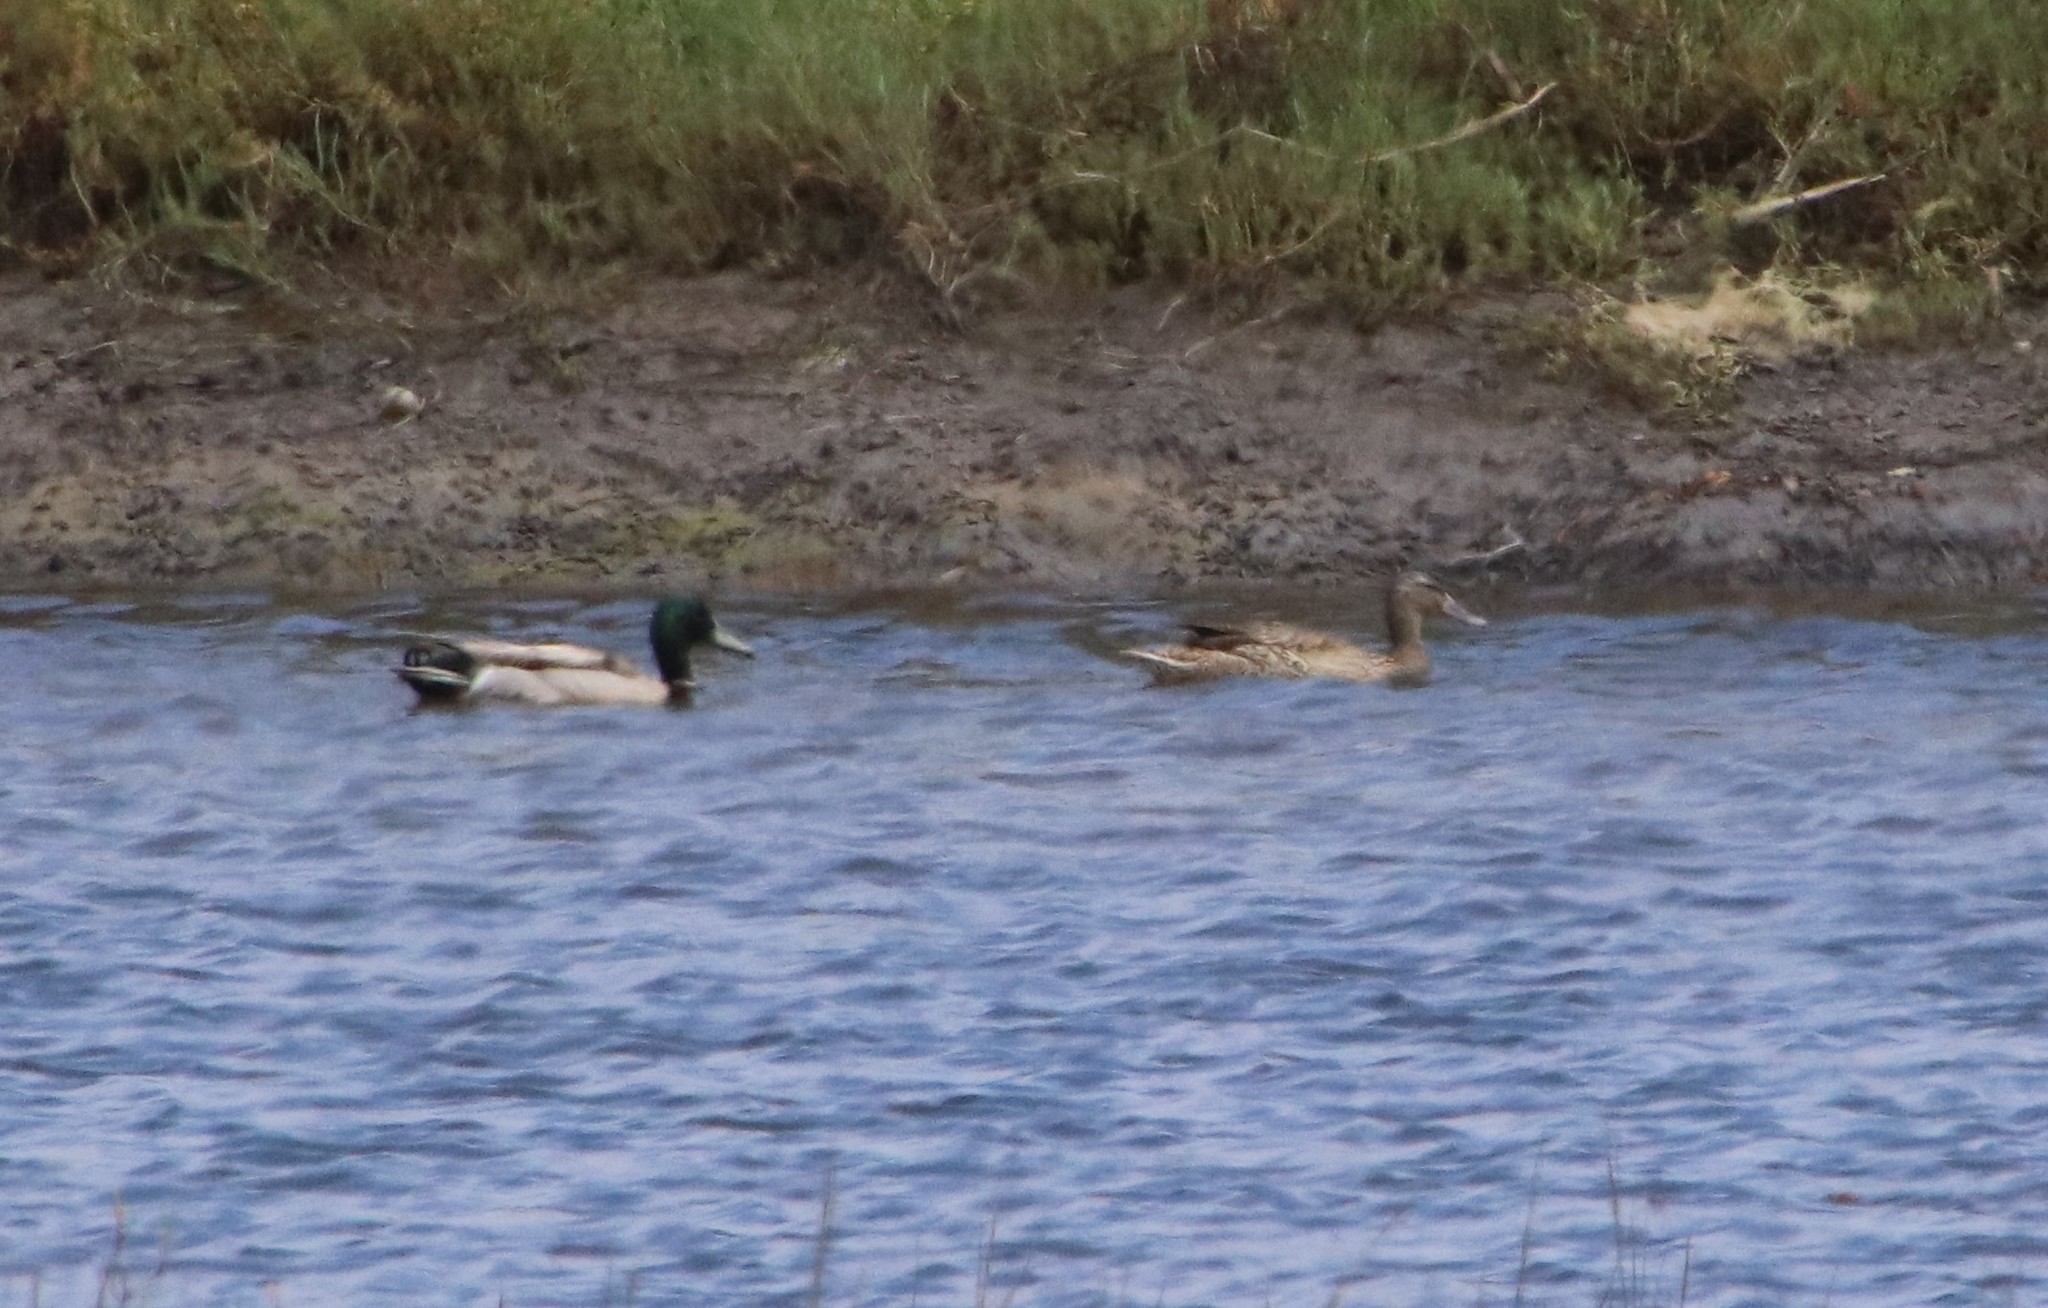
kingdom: Animalia
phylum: Chordata
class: Aves
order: Anseriformes
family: Anatidae
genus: Anas
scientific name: Anas platyrhynchos
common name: Mallard
